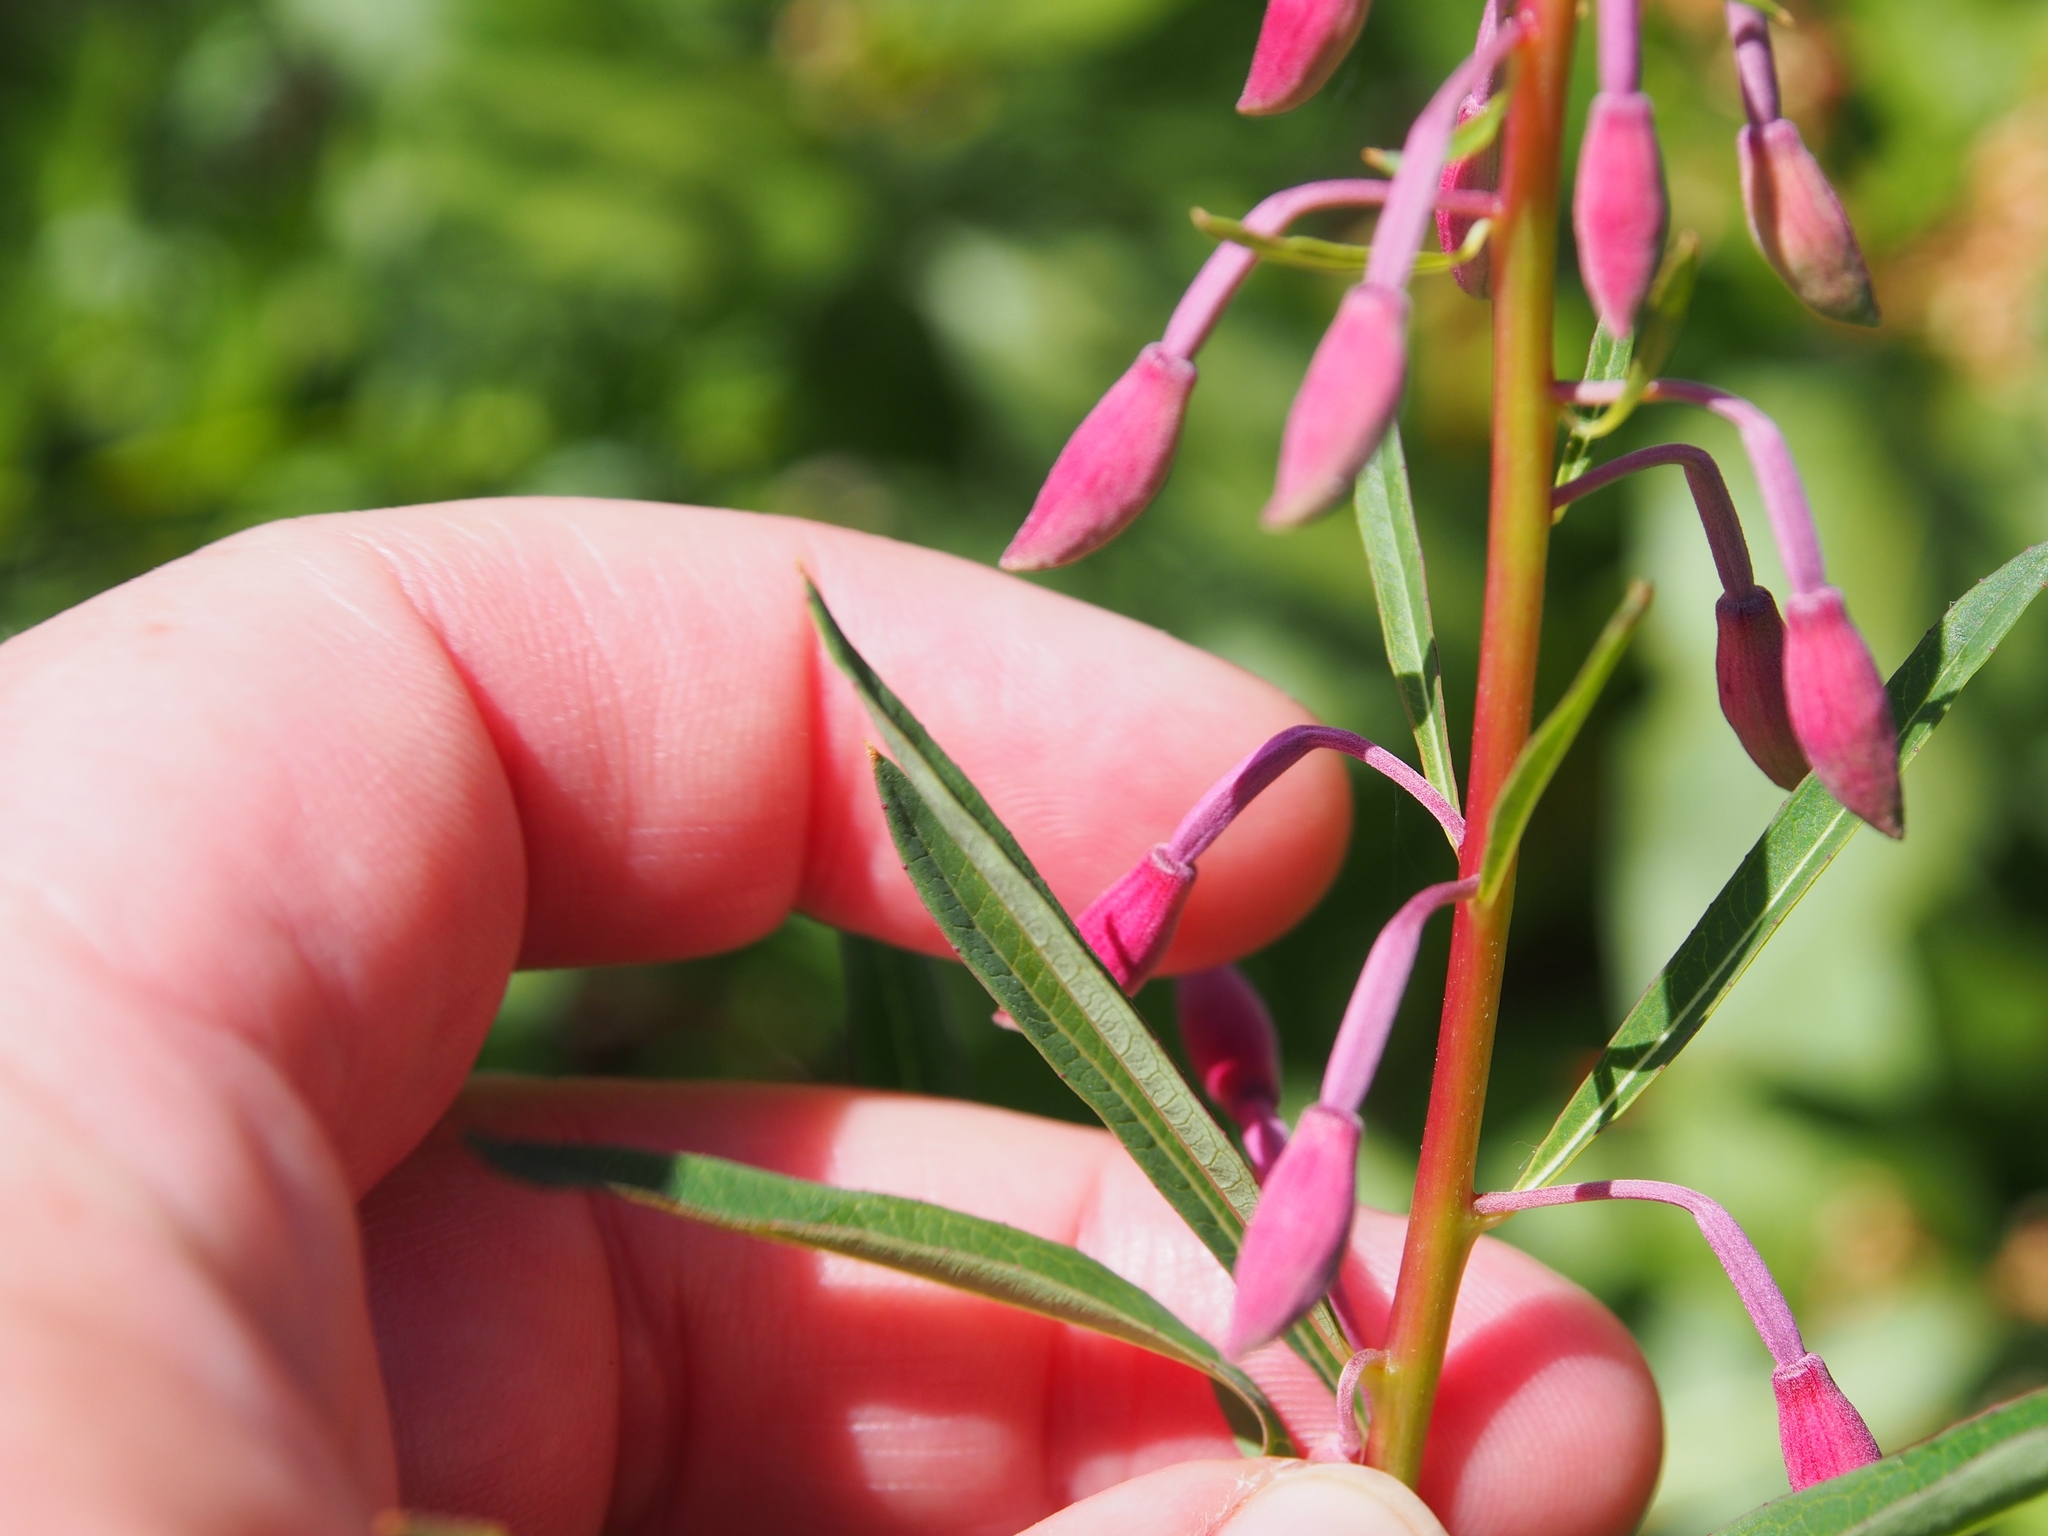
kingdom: Plantae
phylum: Tracheophyta
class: Magnoliopsida
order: Myrtales
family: Onagraceae
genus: Chamaenerion
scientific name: Chamaenerion angustifolium
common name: Fireweed
